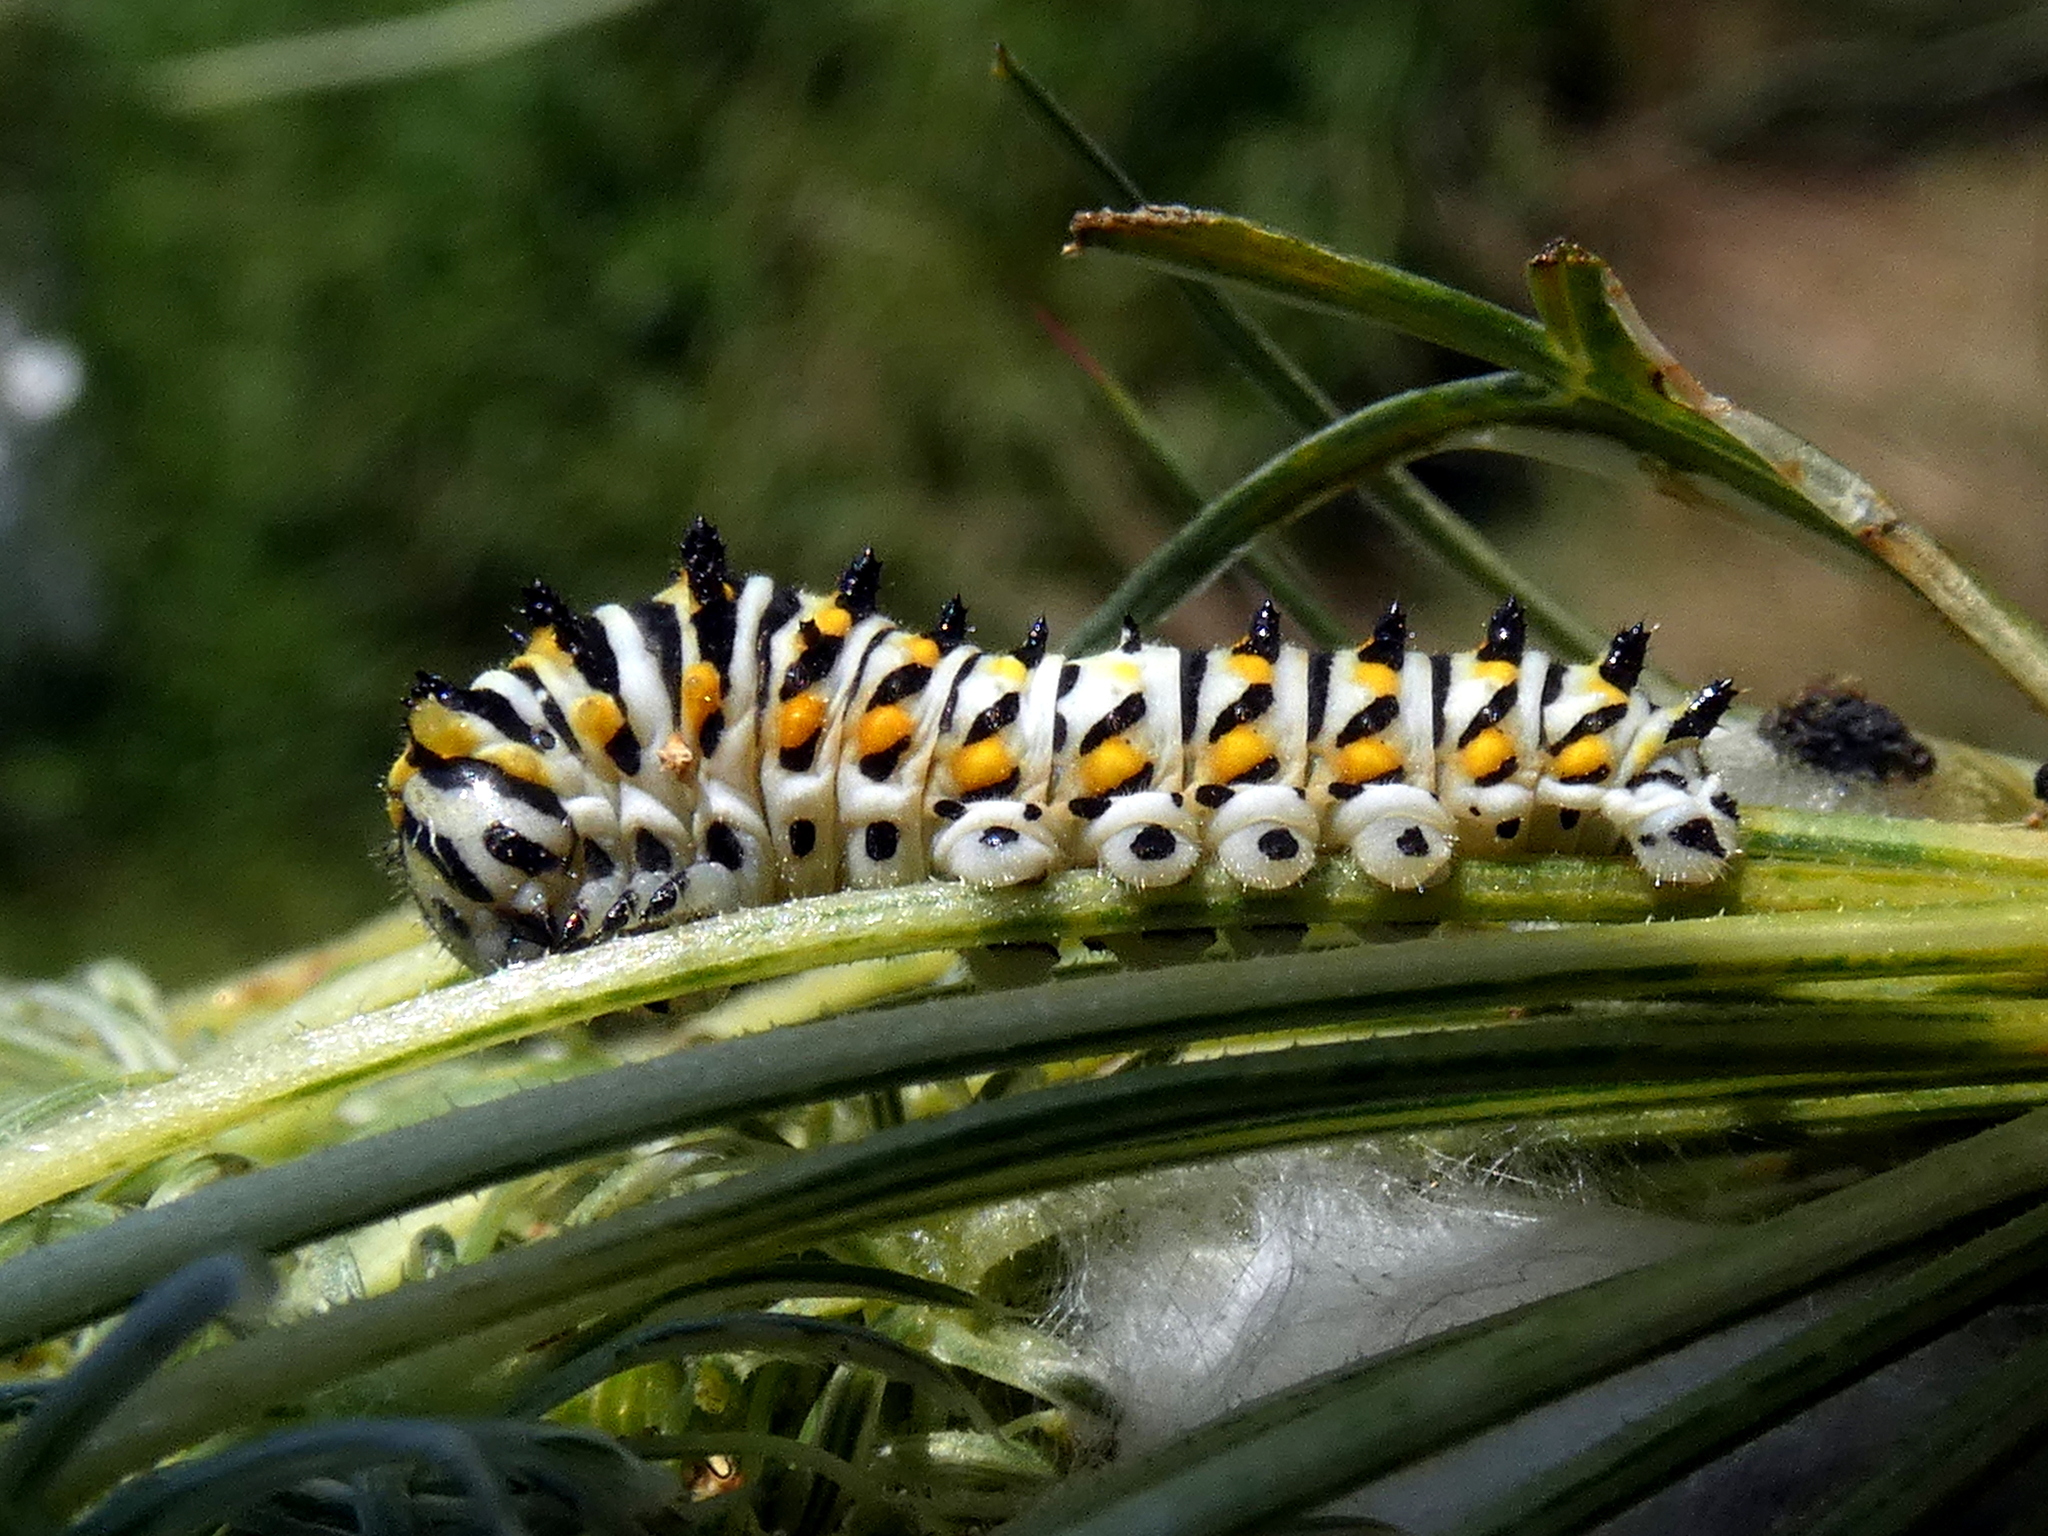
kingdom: Animalia
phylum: Arthropoda
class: Insecta
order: Lepidoptera
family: Papilionidae
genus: Papilio
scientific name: Papilio polyxenes
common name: Black swallowtail
